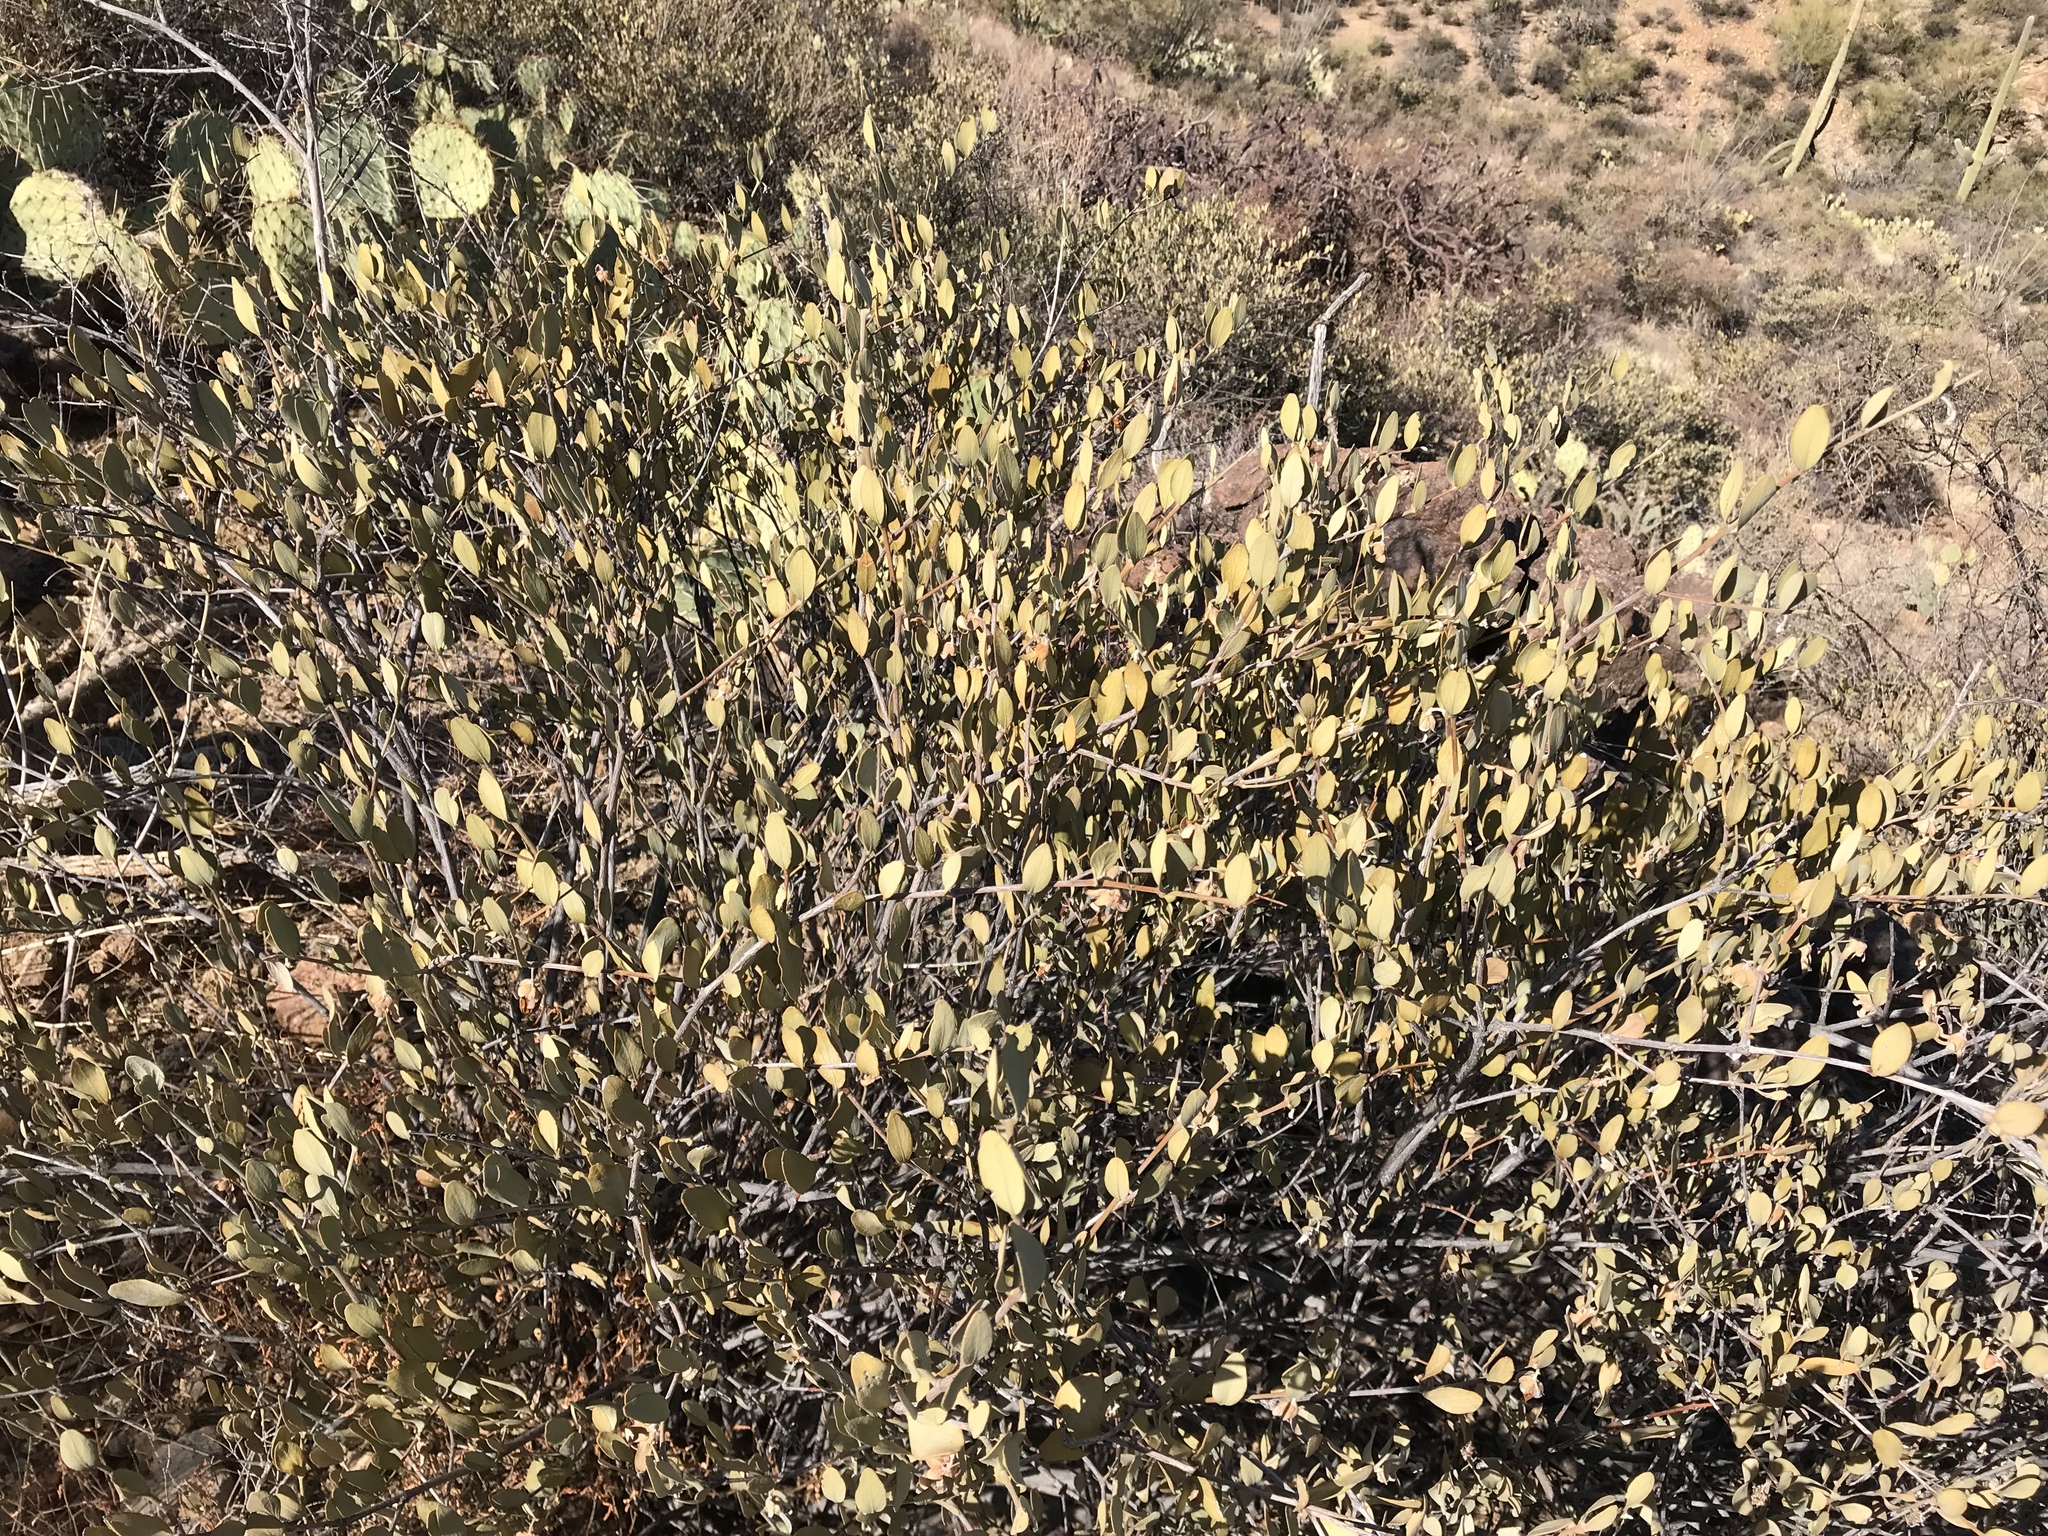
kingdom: Plantae
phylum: Tracheophyta
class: Magnoliopsida
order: Caryophyllales
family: Simmondsiaceae
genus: Simmondsia
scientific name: Simmondsia chinensis
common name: Jojoba
